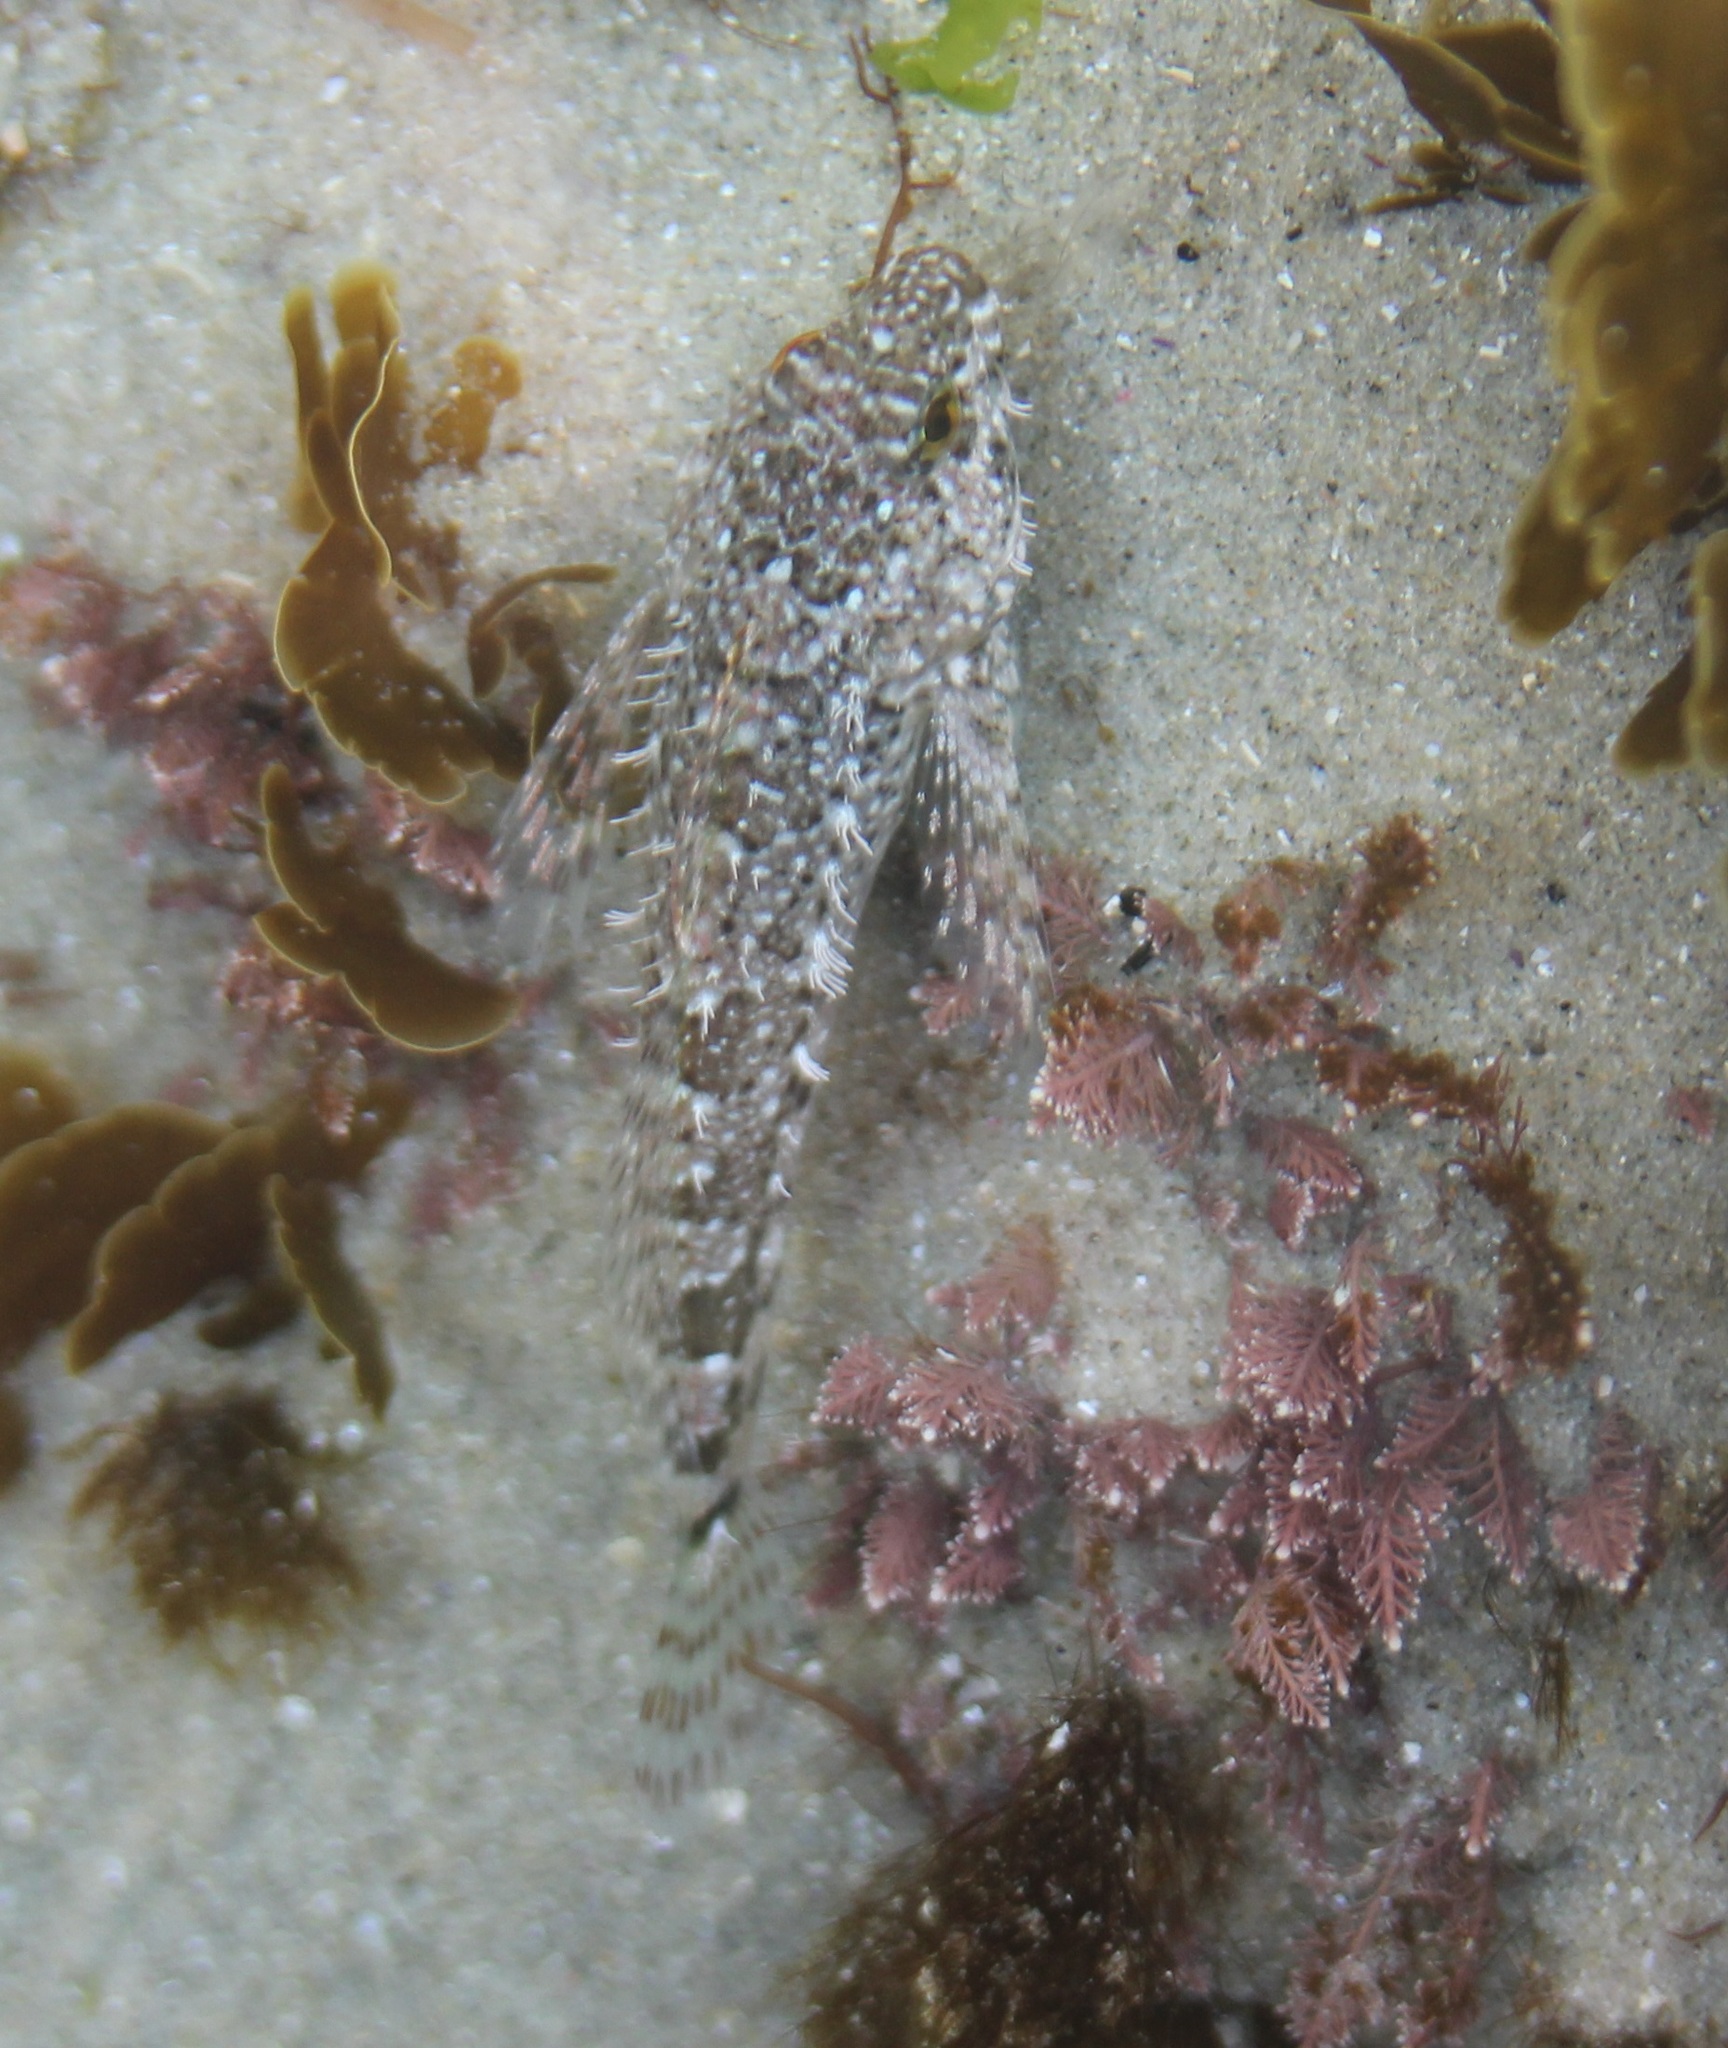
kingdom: Animalia
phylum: Chordata
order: Scorpaeniformes
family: Cottidae
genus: Clinocottus
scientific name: Clinocottus analis
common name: Woolly sculpin
